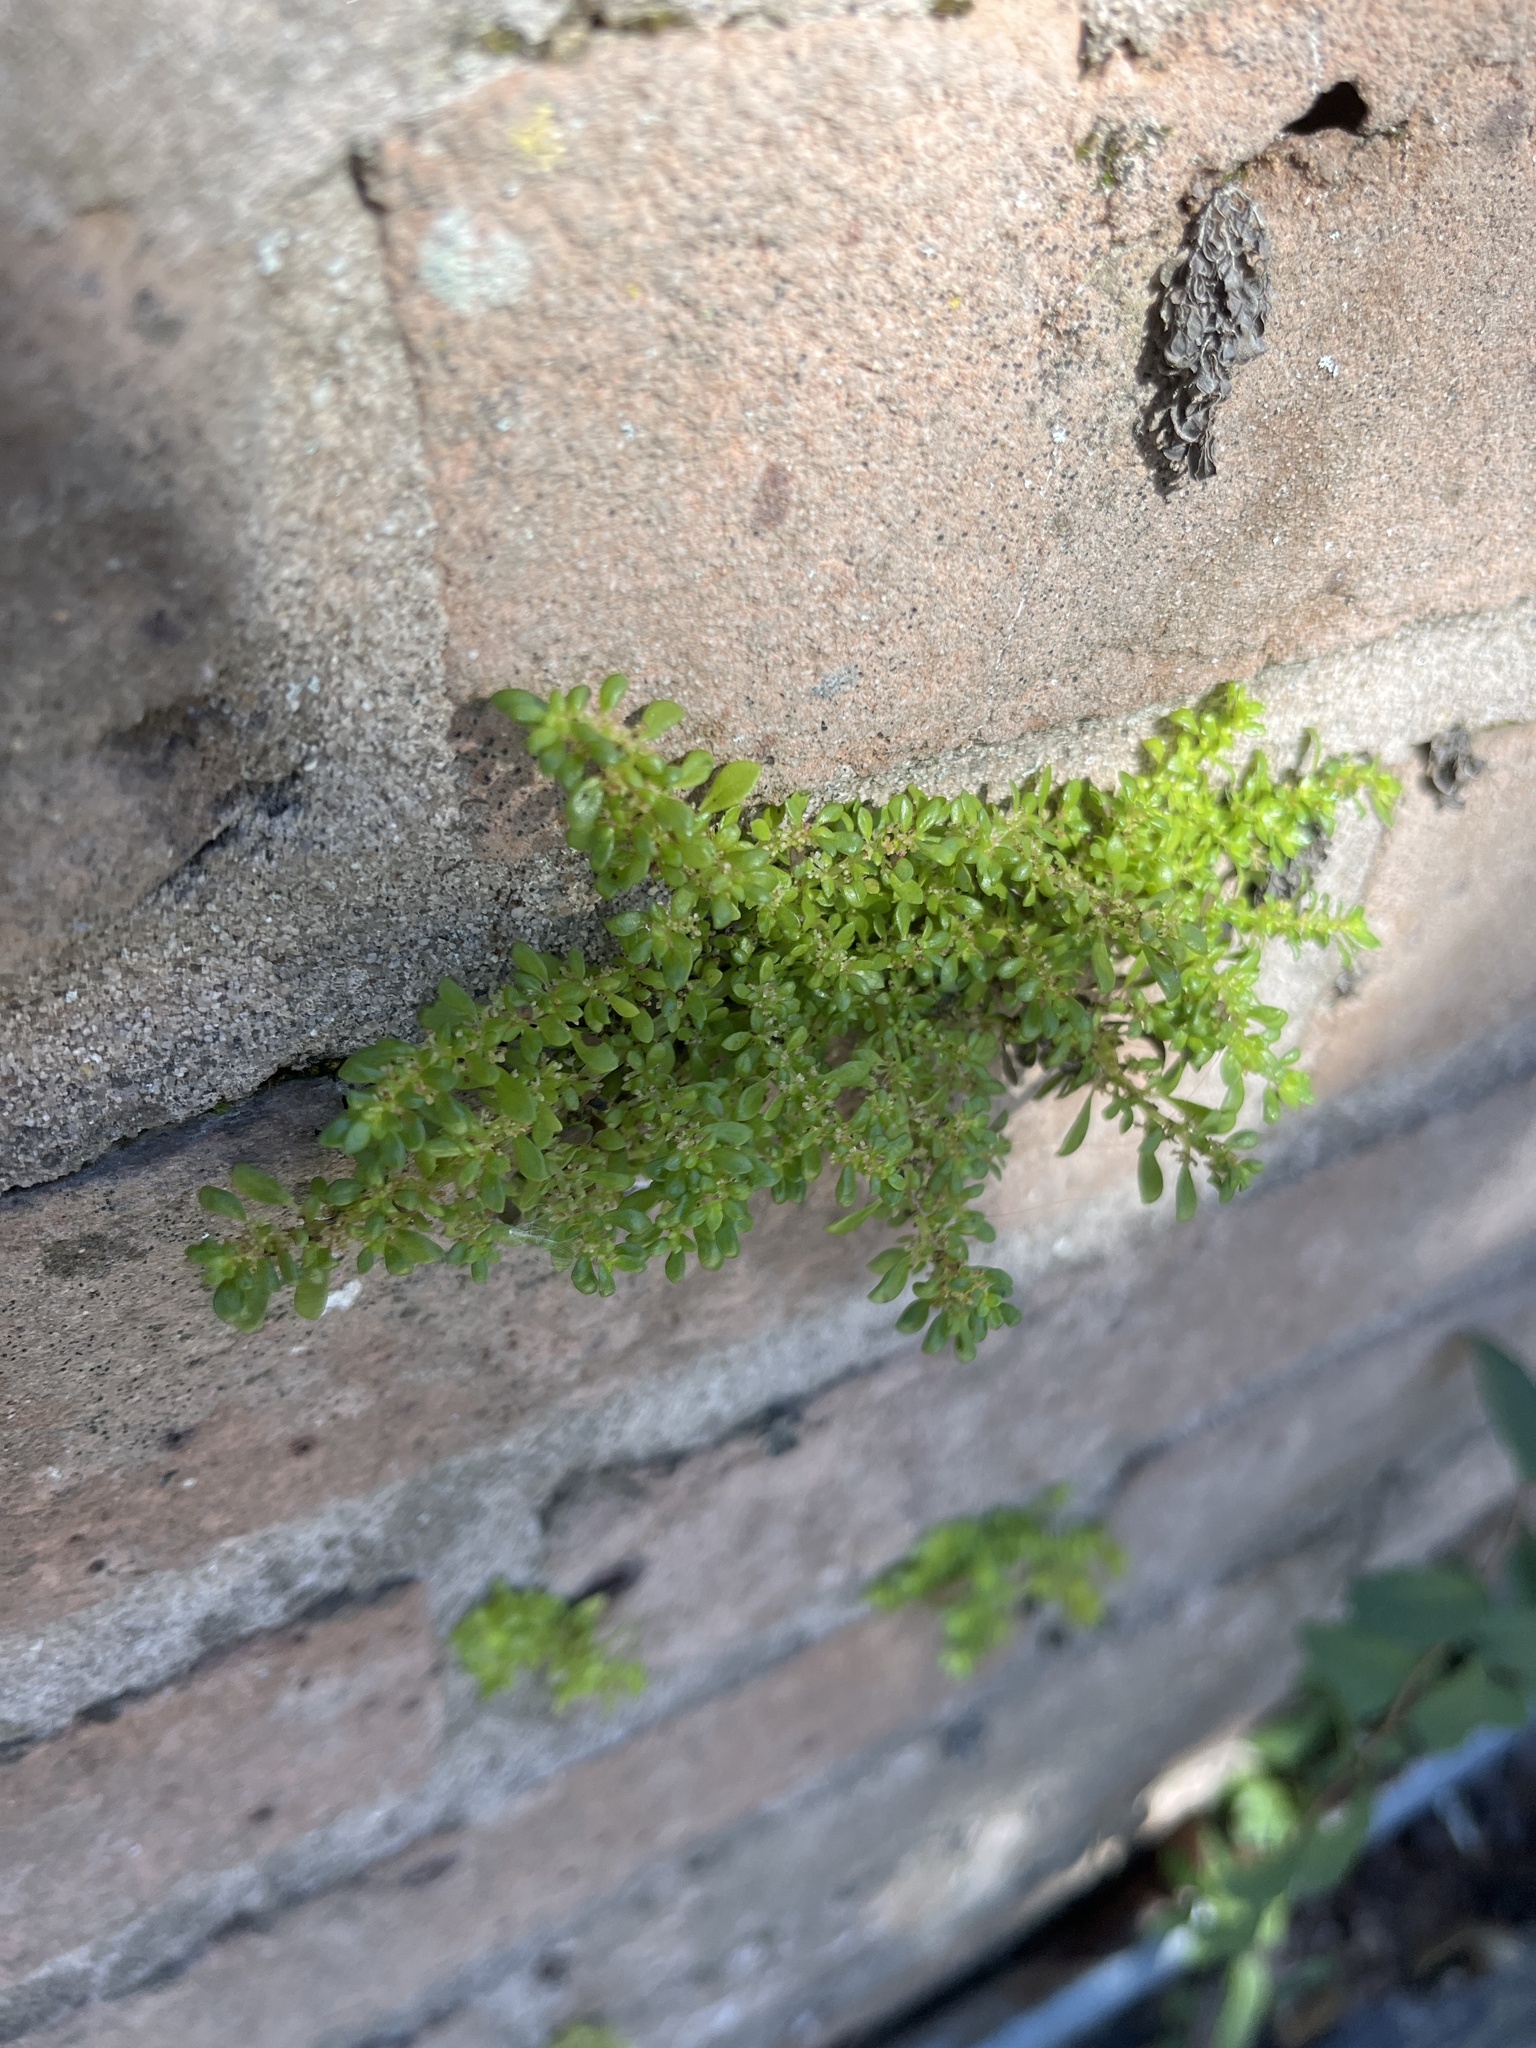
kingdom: Plantae
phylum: Tracheophyta
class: Magnoliopsida
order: Rosales
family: Urticaceae
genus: Pilea
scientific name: Pilea microphylla
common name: Artillery-plant
